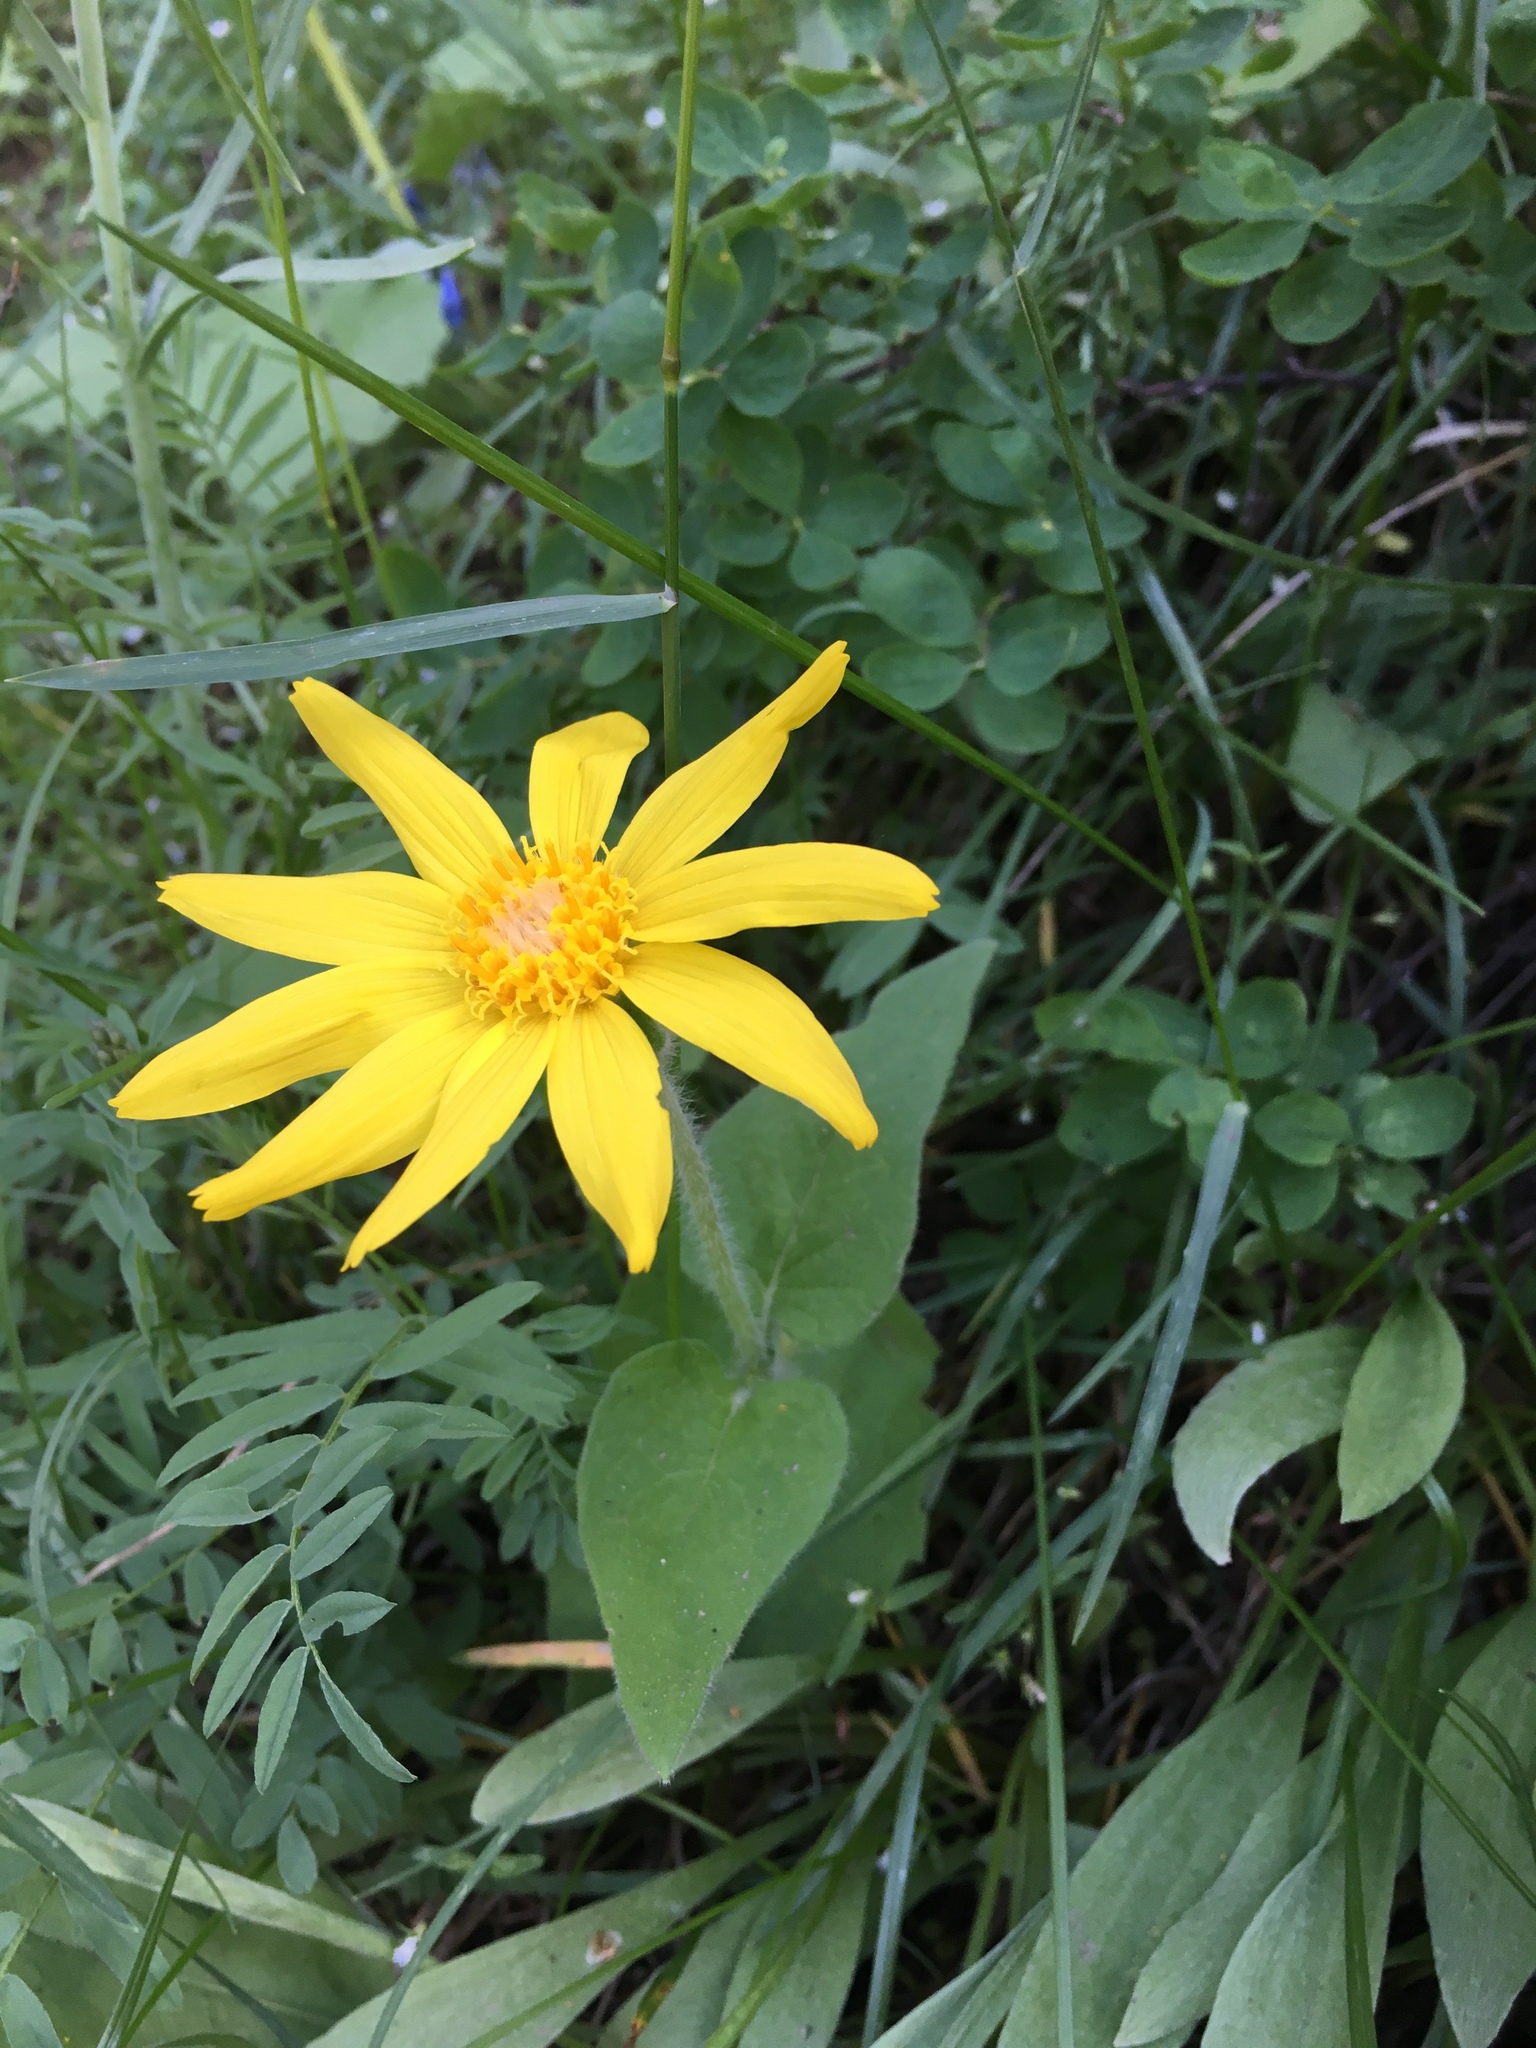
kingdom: Plantae
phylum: Tracheophyta
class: Magnoliopsida
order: Asterales
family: Asteraceae
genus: Arnica
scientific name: Arnica cordifolia
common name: Heart-leaf arnica
